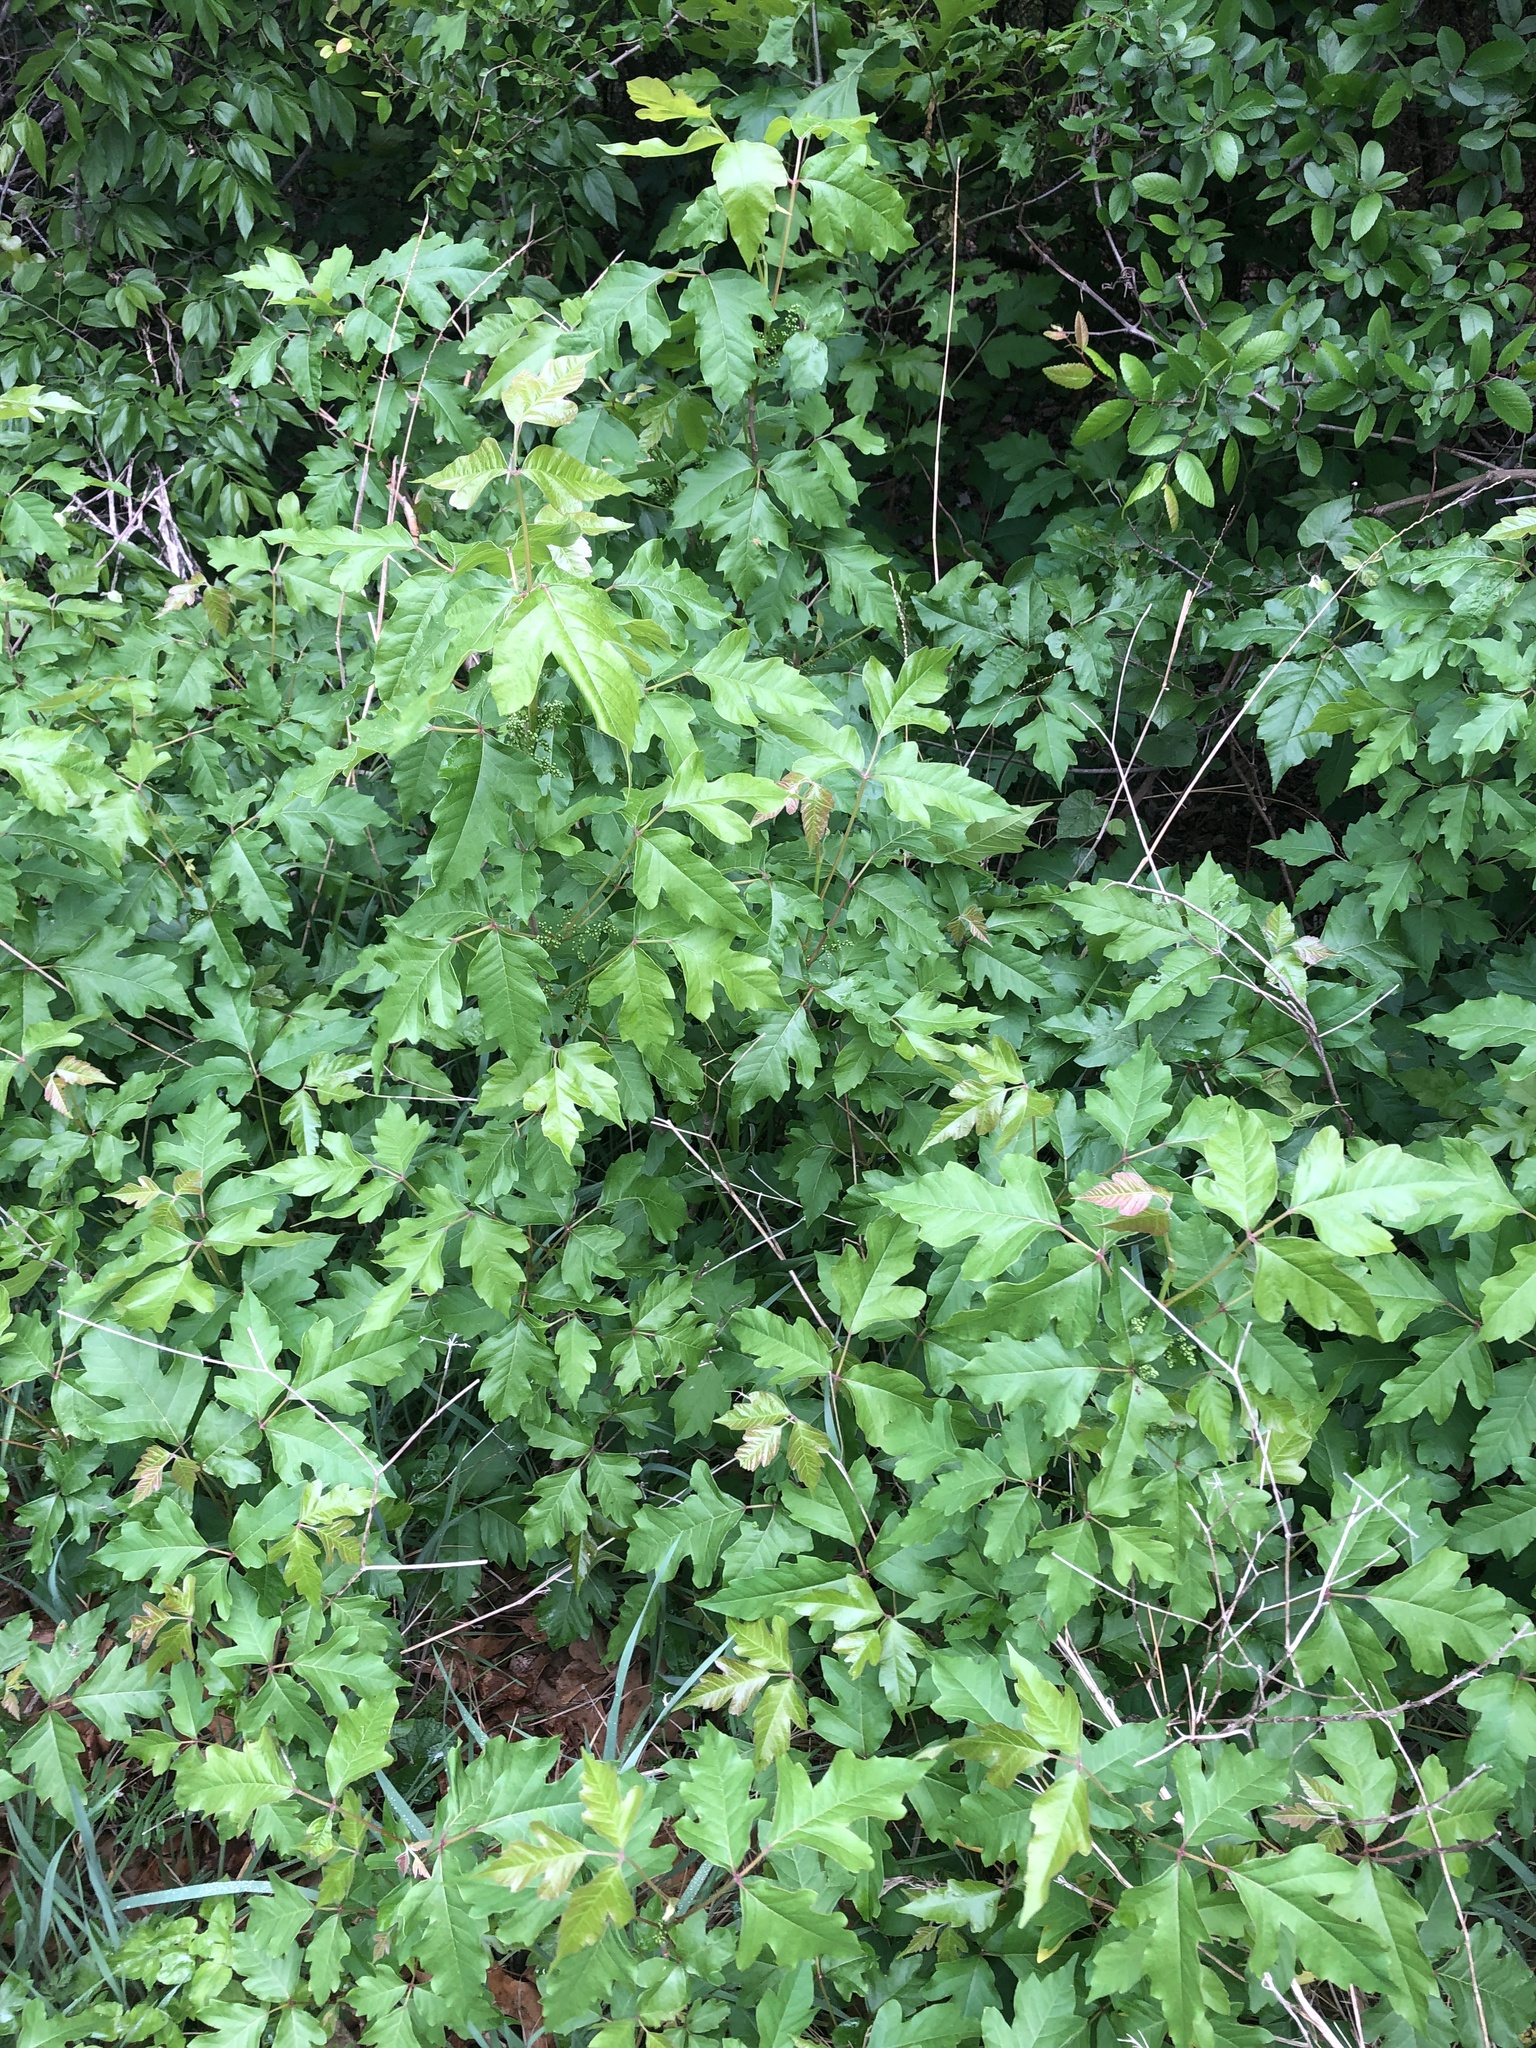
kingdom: Plantae
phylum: Tracheophyta
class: Magnoliopsida
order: Sapindales
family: Anacardiaceae
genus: Toxicodendron
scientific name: Toxicodendron radicans
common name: Poison ivy
